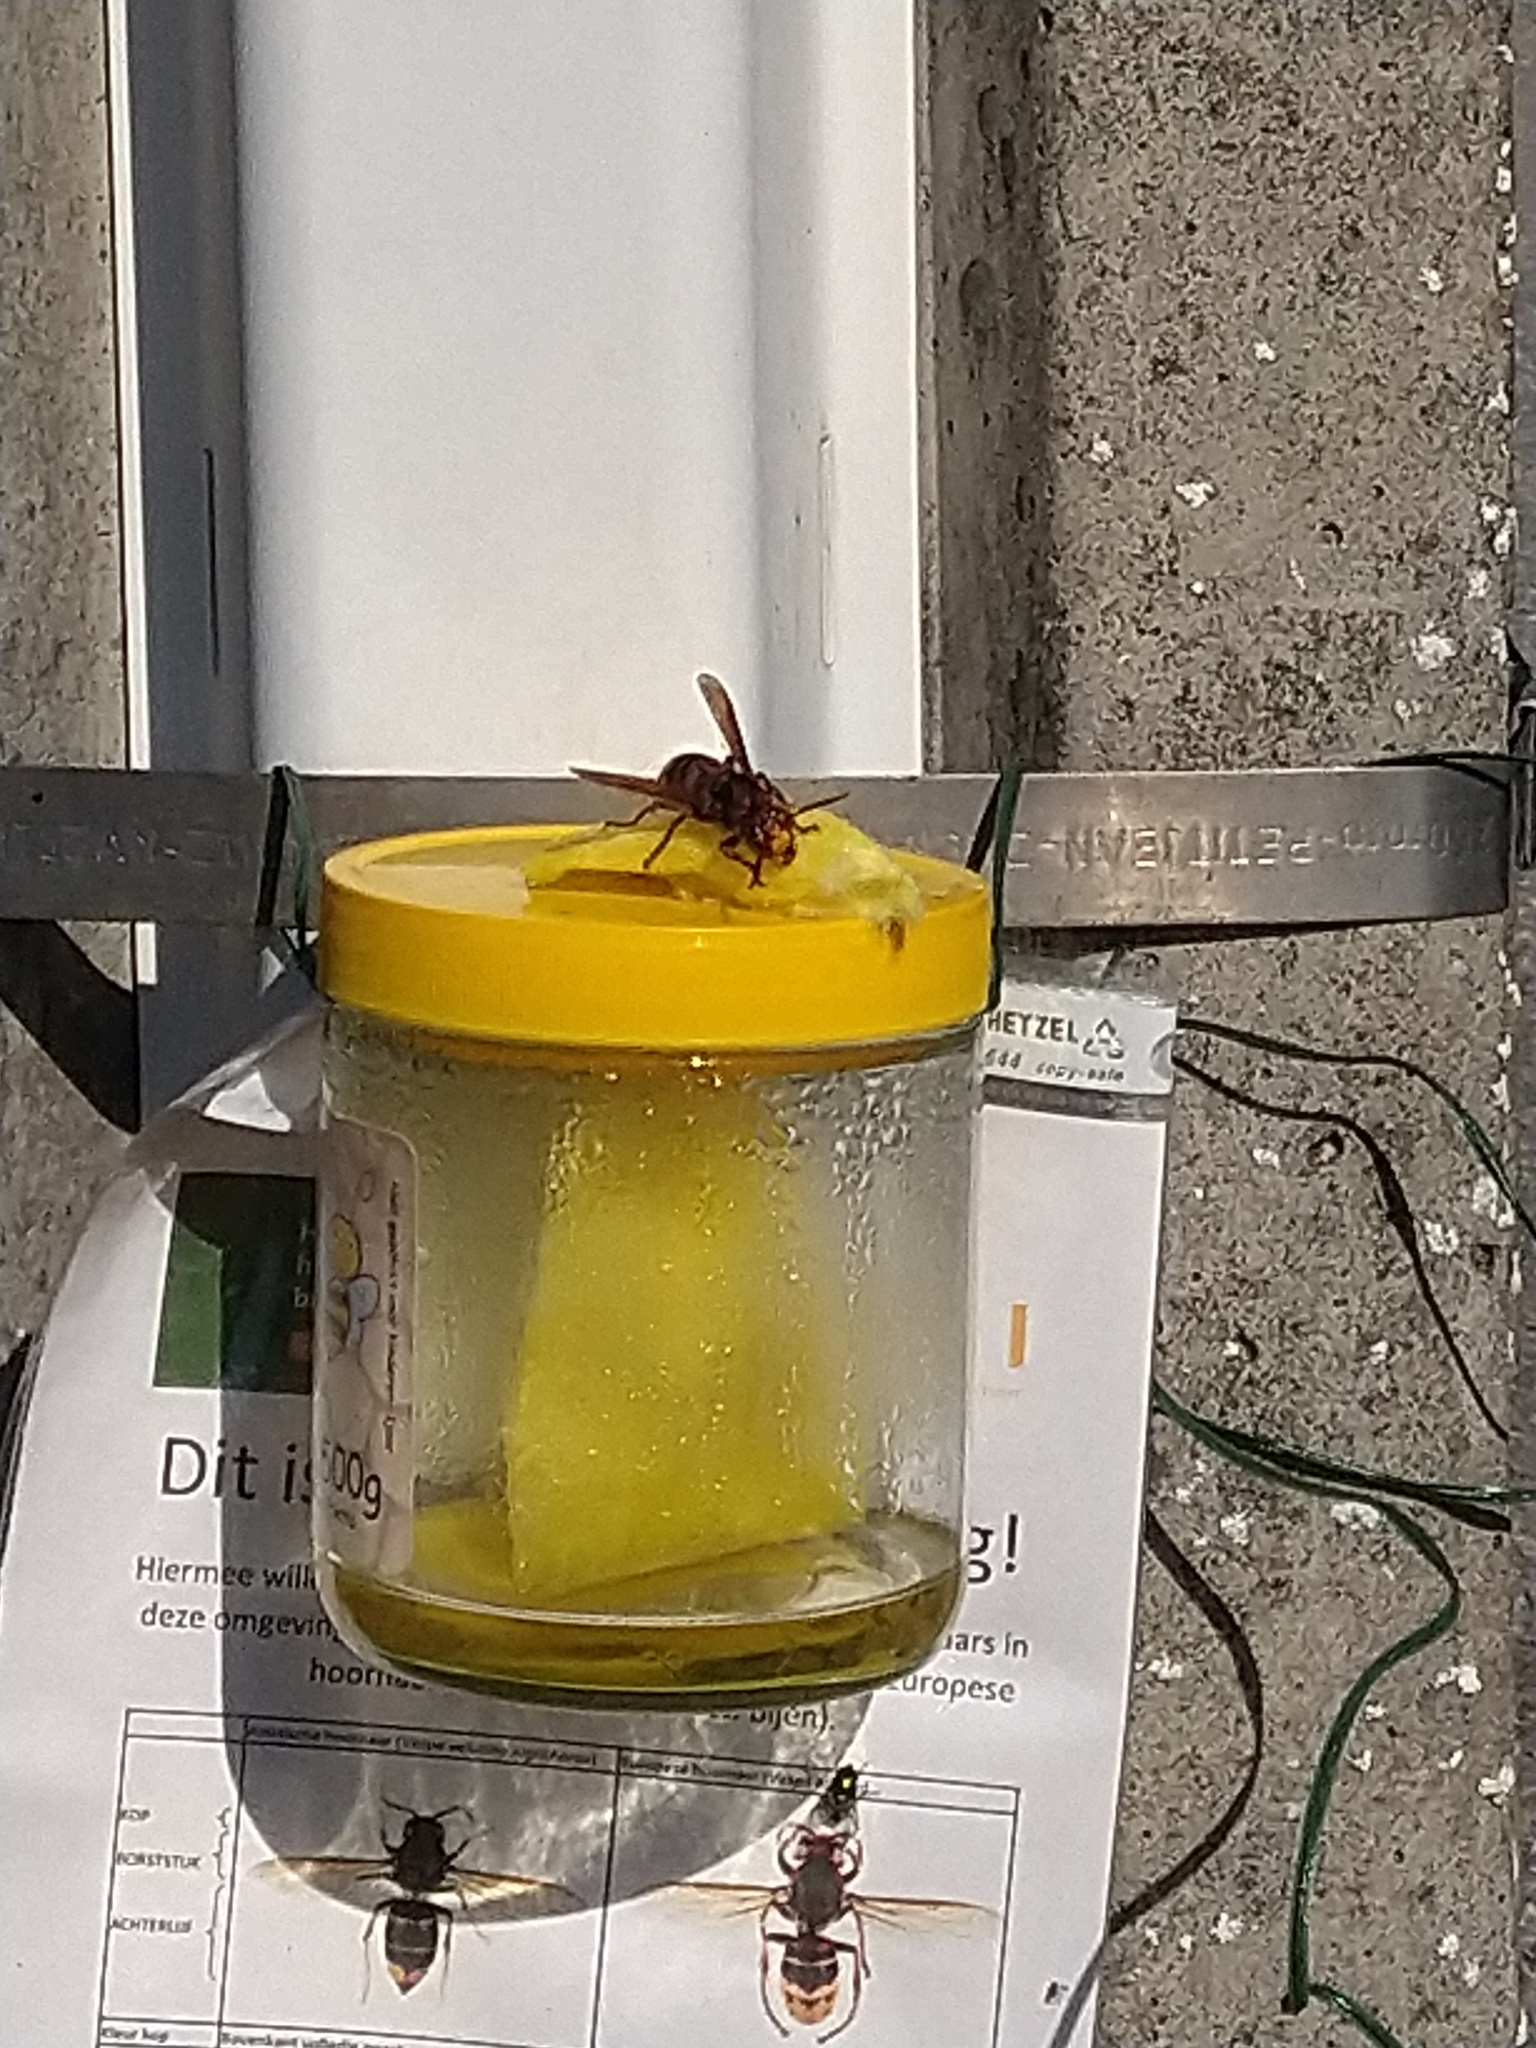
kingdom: Animalia
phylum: Arthropoda
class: Insecta
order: Hymenoptera
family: Vespidae
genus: Vespa
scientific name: Vespa crabro
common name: Hornet
